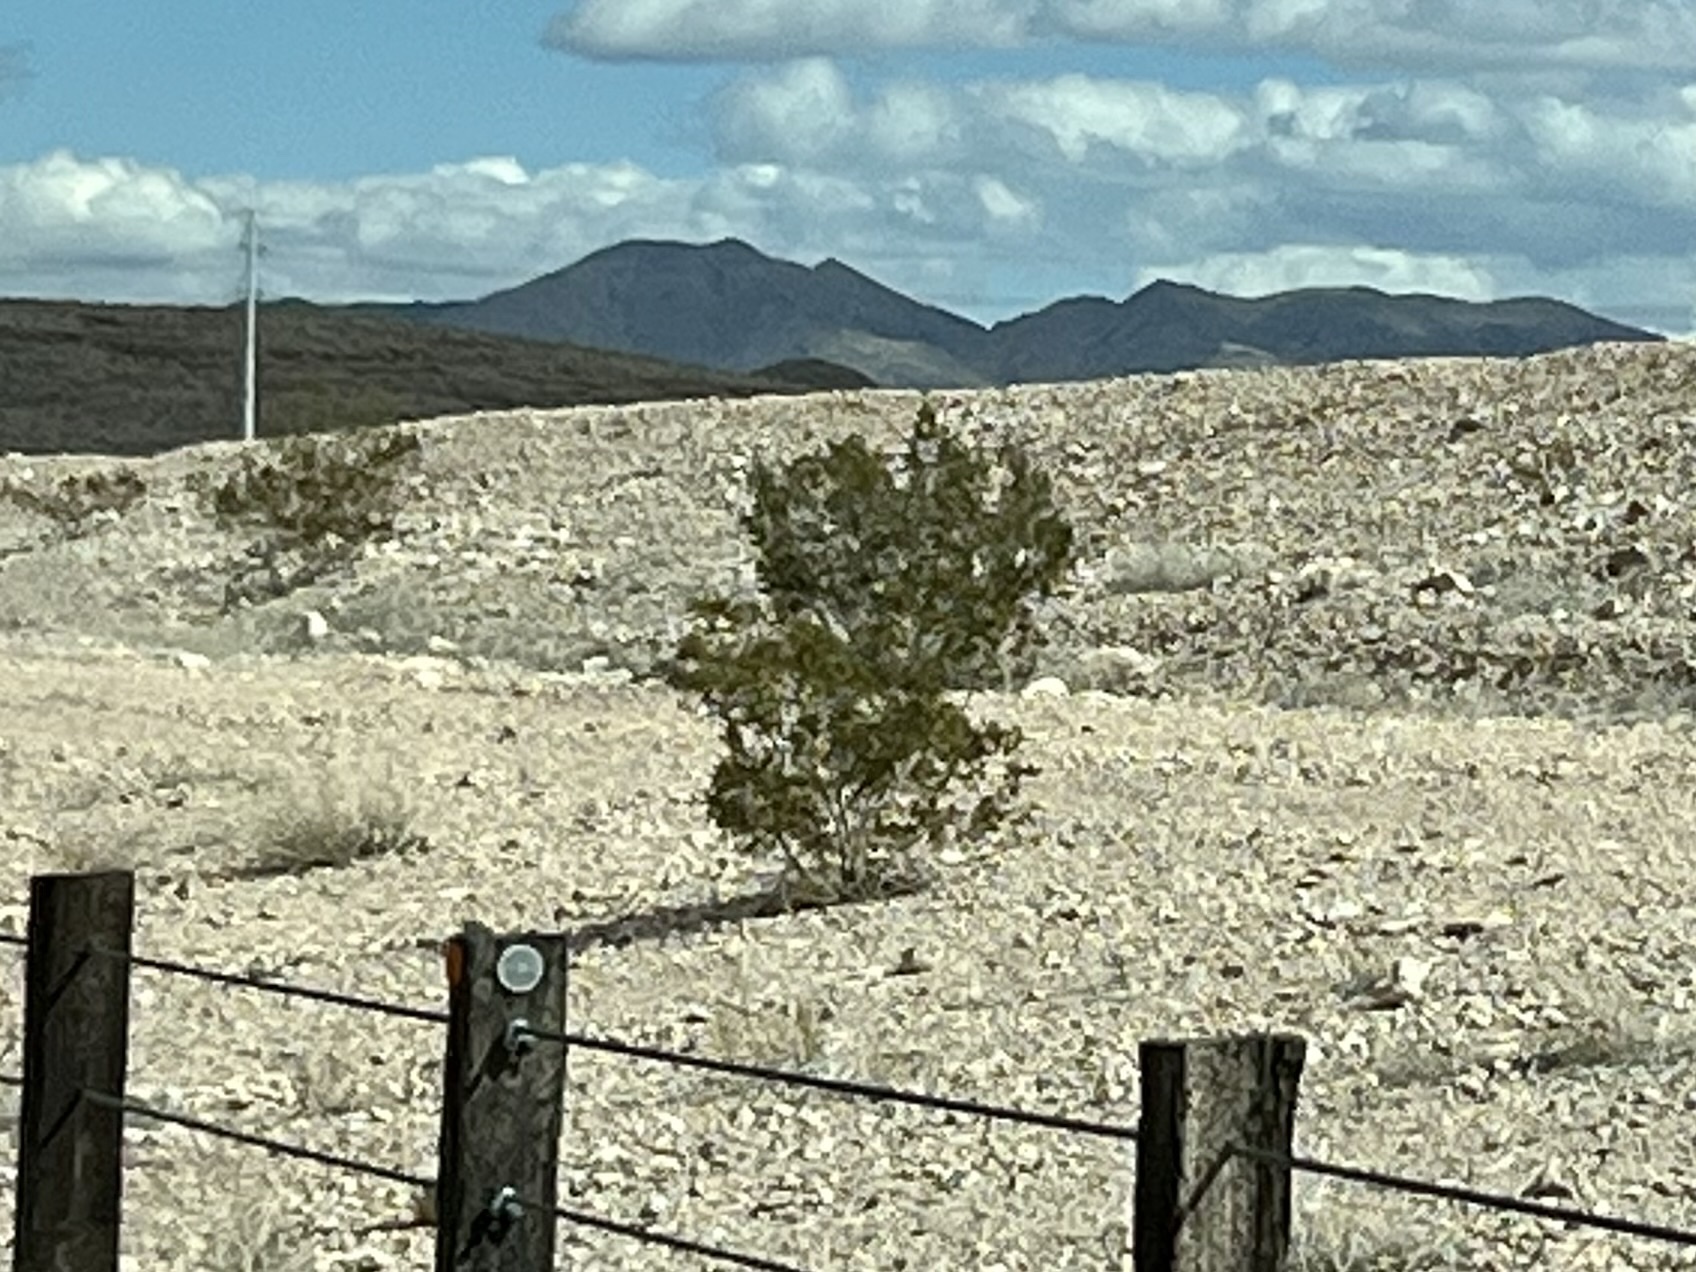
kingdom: Plantae
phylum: Tracheophyta
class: Magnoliopsida
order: Zygophyllales
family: Zygophyllaceae
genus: Larrea
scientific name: Larrea tridentata
